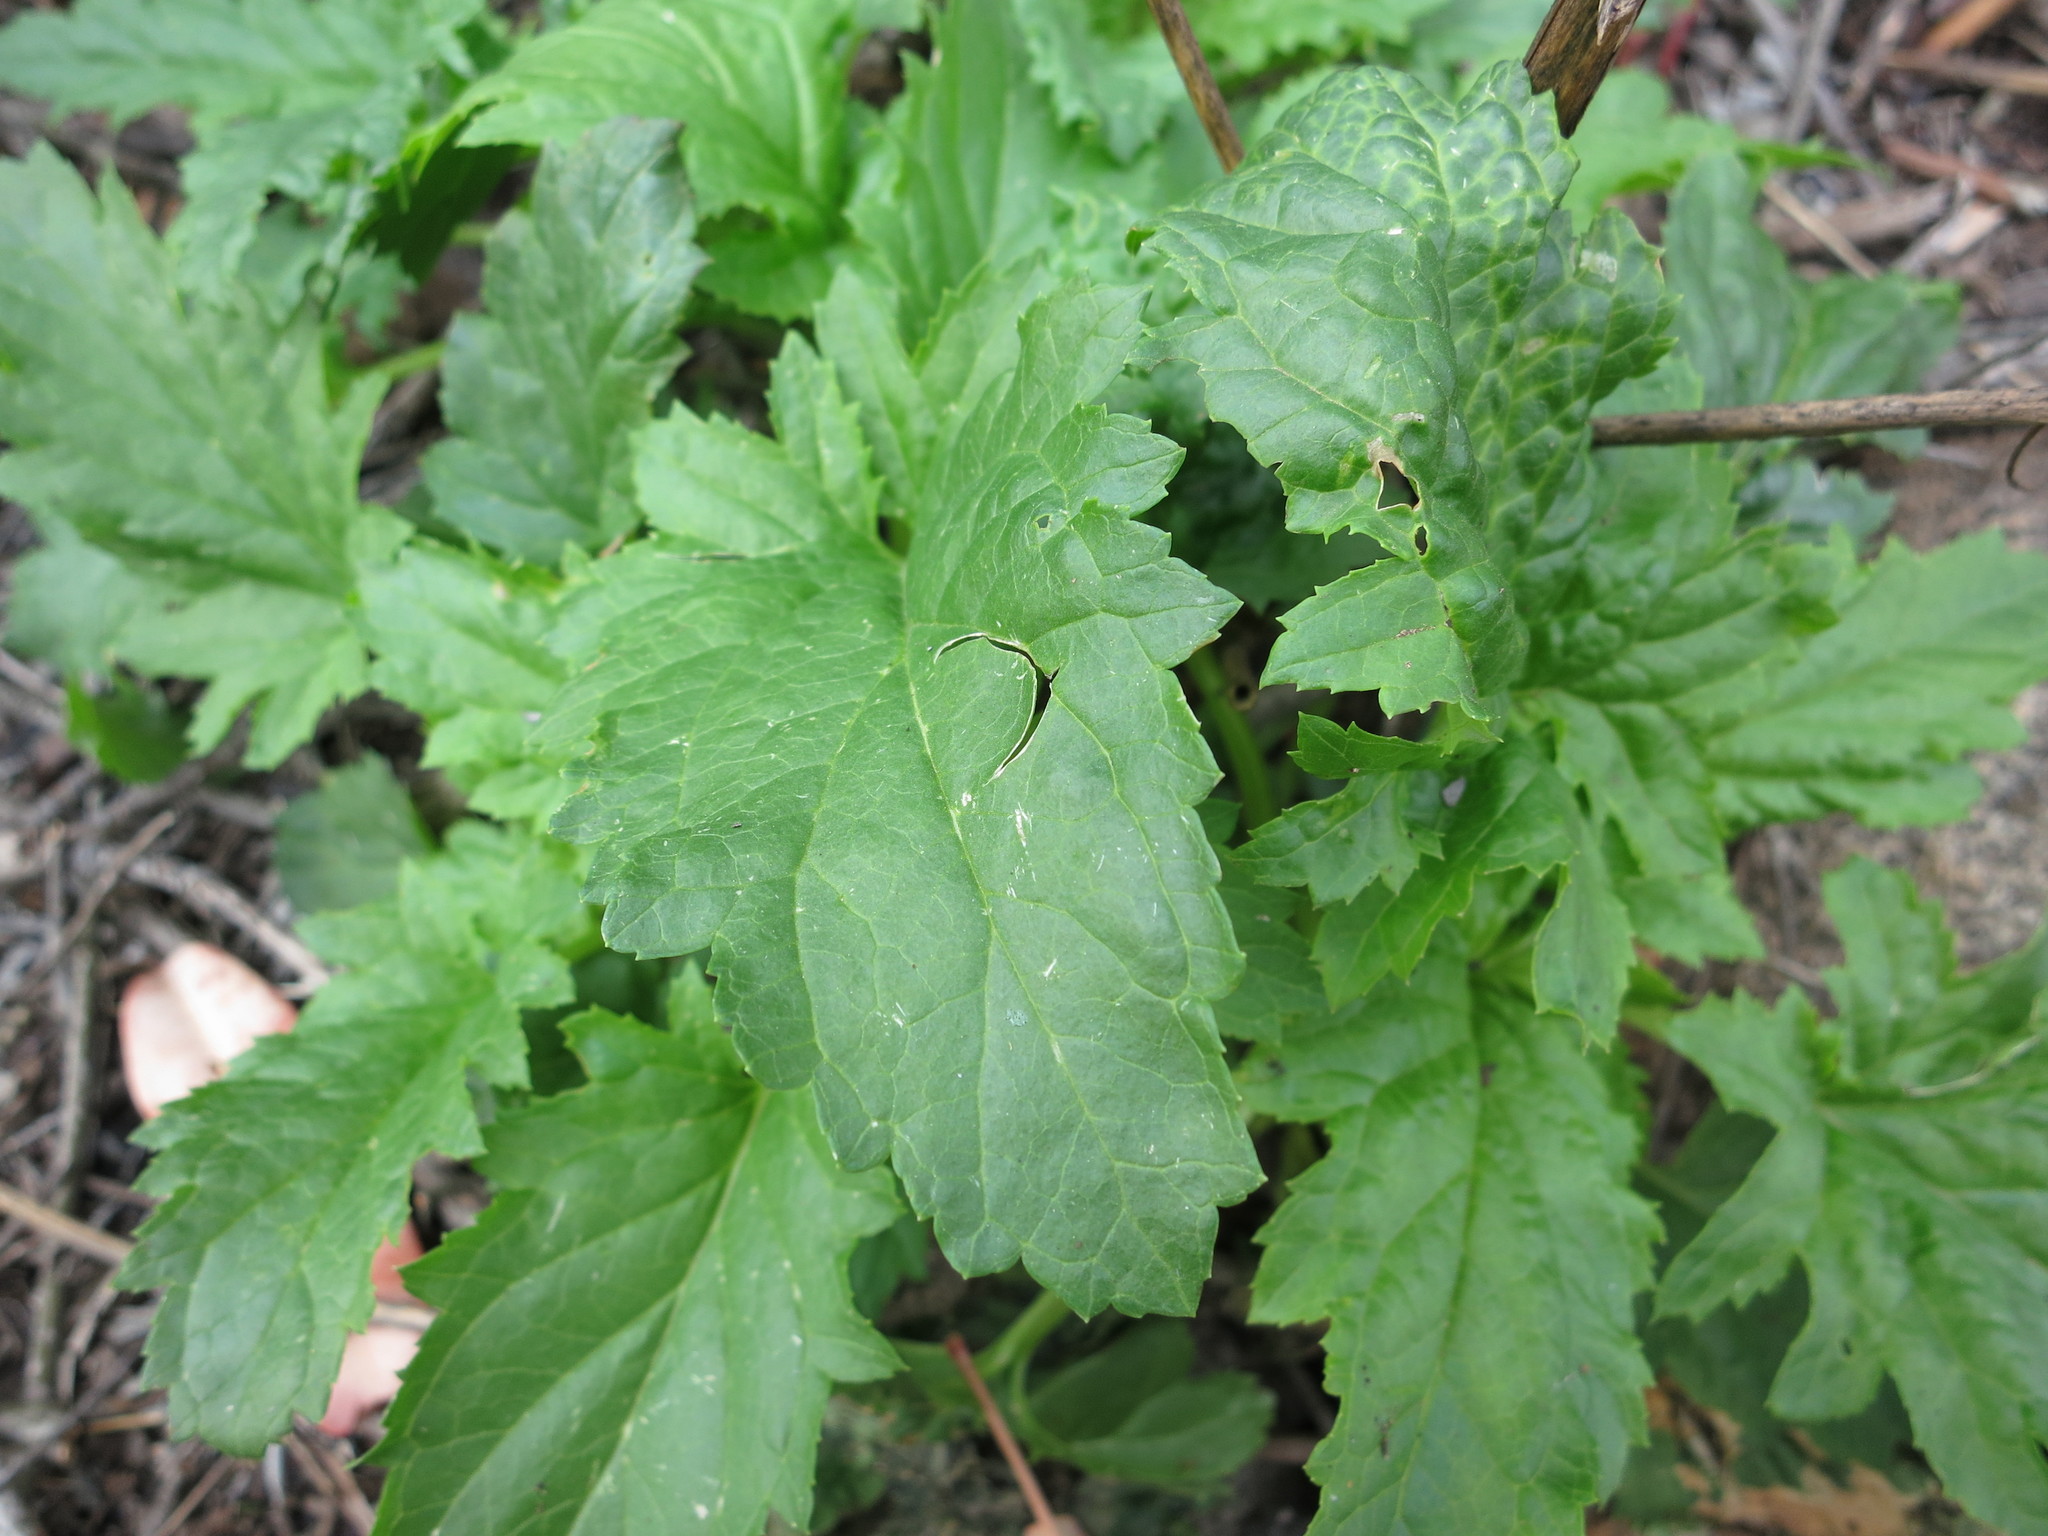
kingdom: Plantae
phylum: Tracheophyta
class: Magnoliopsida
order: Lamiales
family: Scrophulariaceae
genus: Scrophularia
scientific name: Scrophularia californica
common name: California figwort
